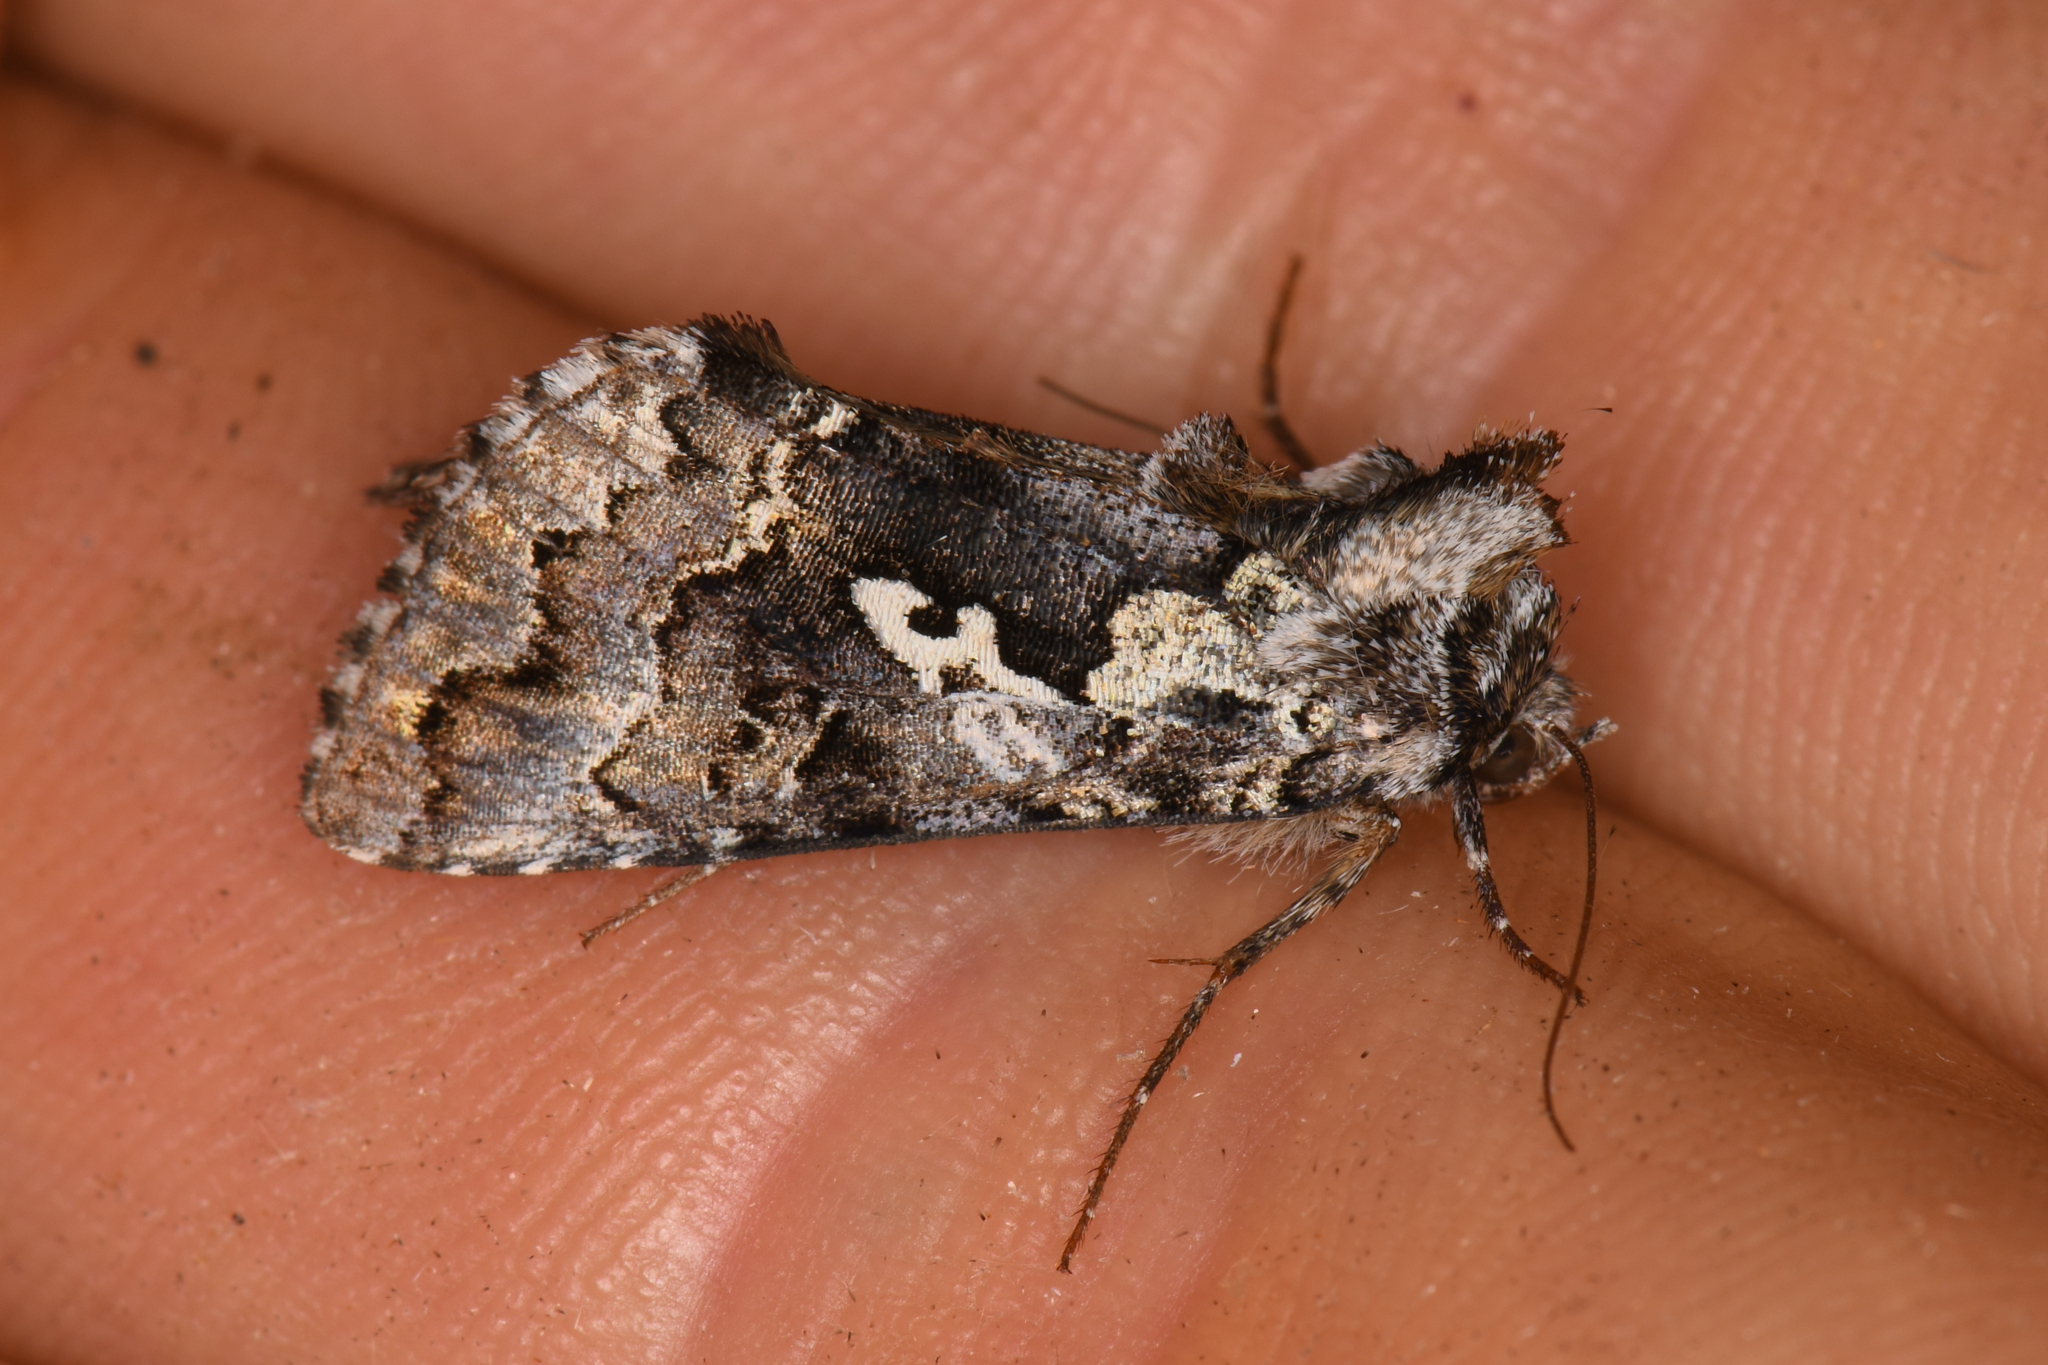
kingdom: Animalia
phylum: Arthropoda
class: Insecta
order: Lepidoptera
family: Noctuidae
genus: Syngrapha
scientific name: Syngrapha rectangula
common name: Angulated cutworm
